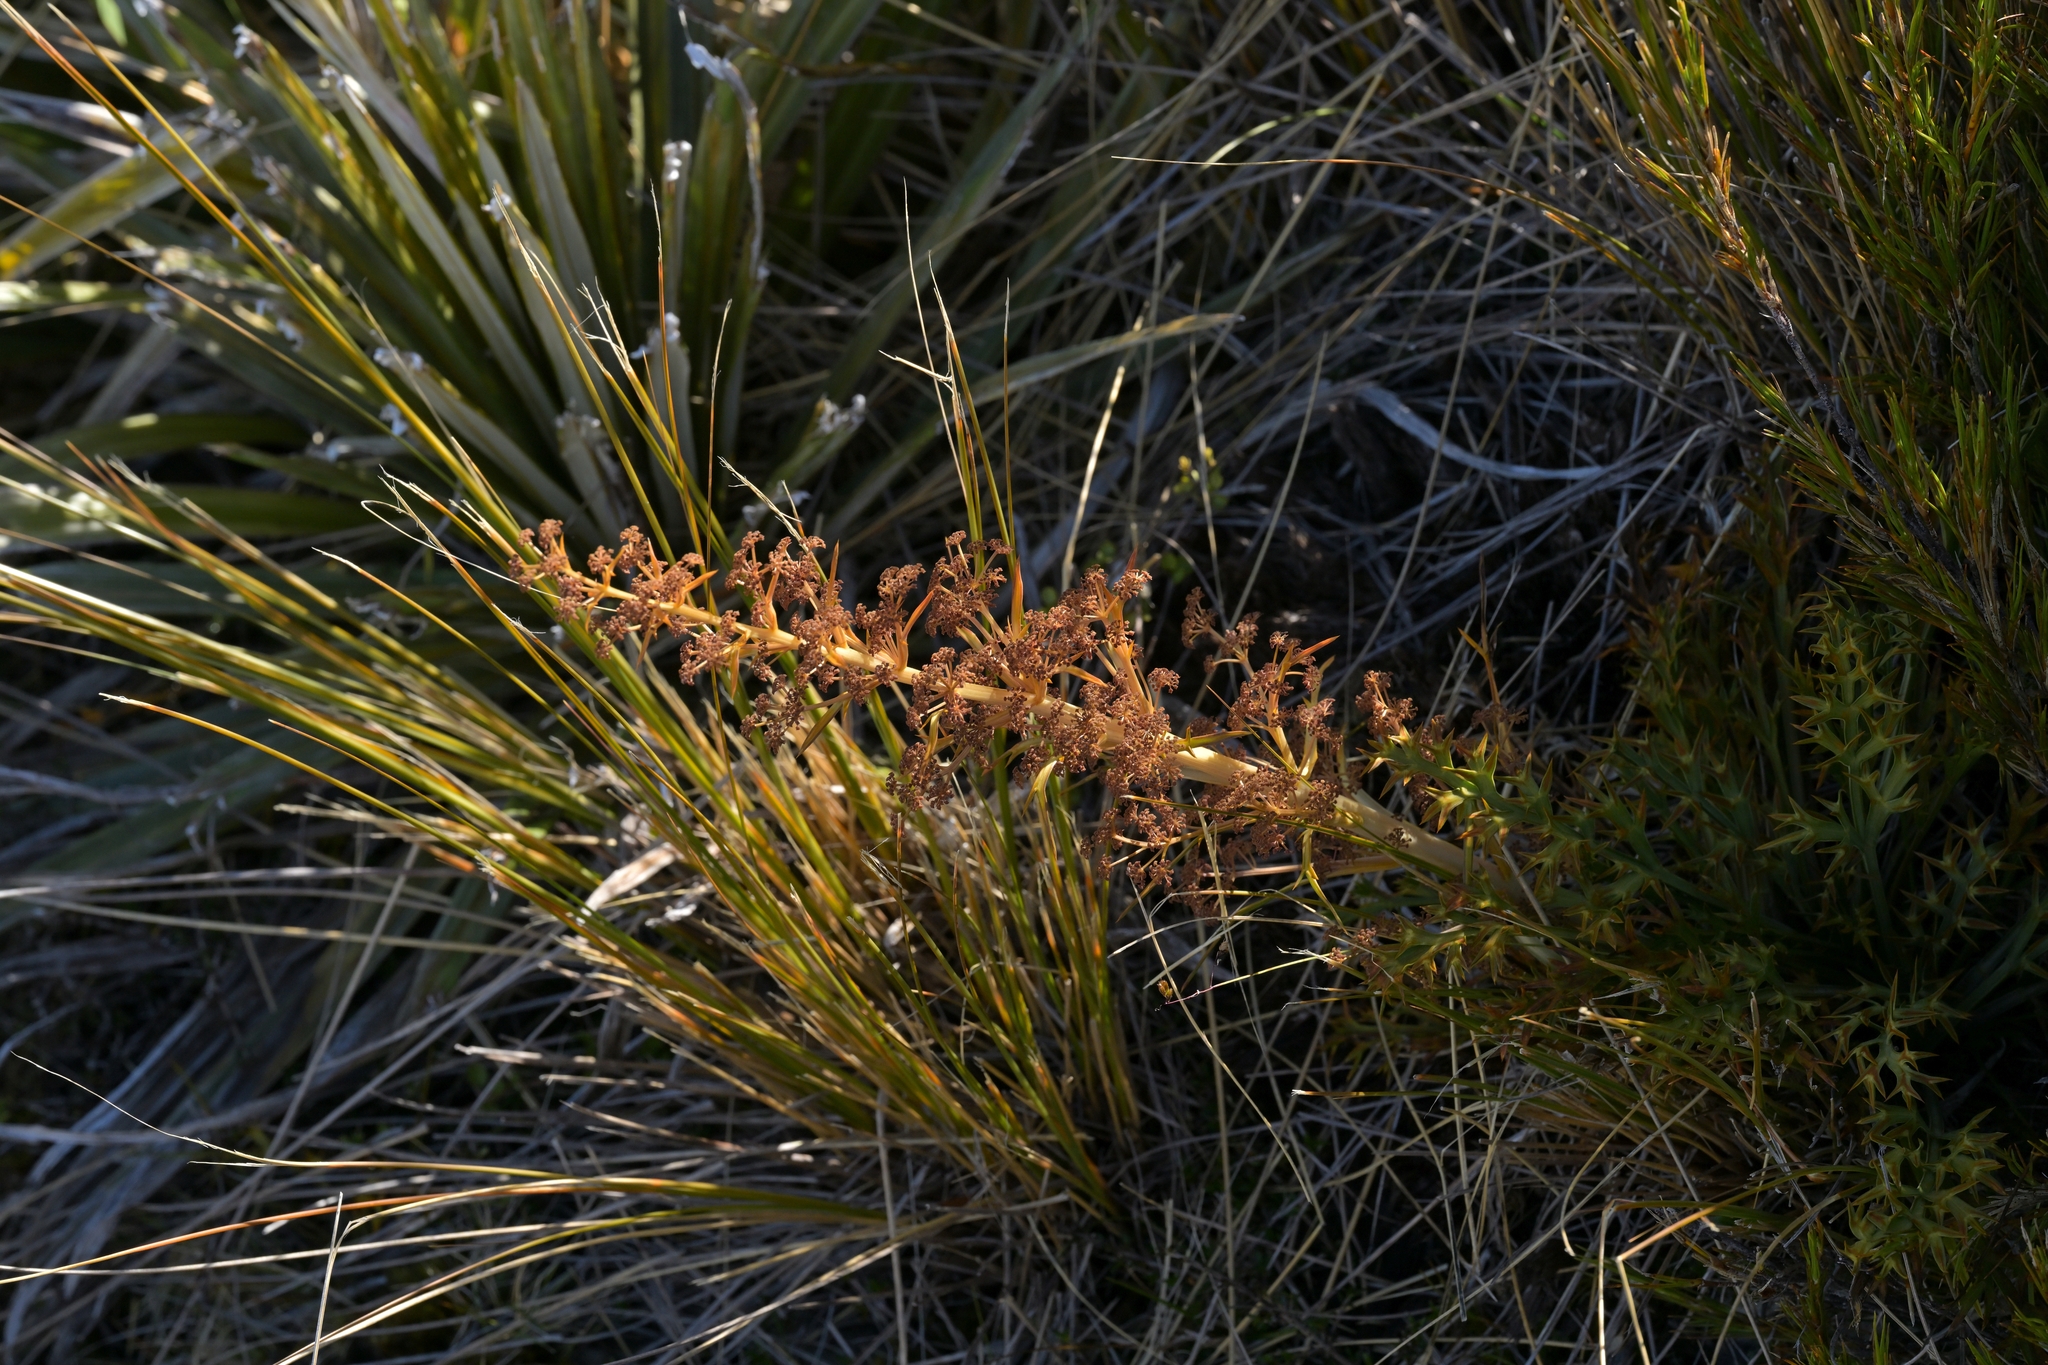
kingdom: Plantae
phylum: Tracheophyta
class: Magnoliopsida
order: Apiales
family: Apiaceae
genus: Aciphylla
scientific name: Aciphylla hookeri
